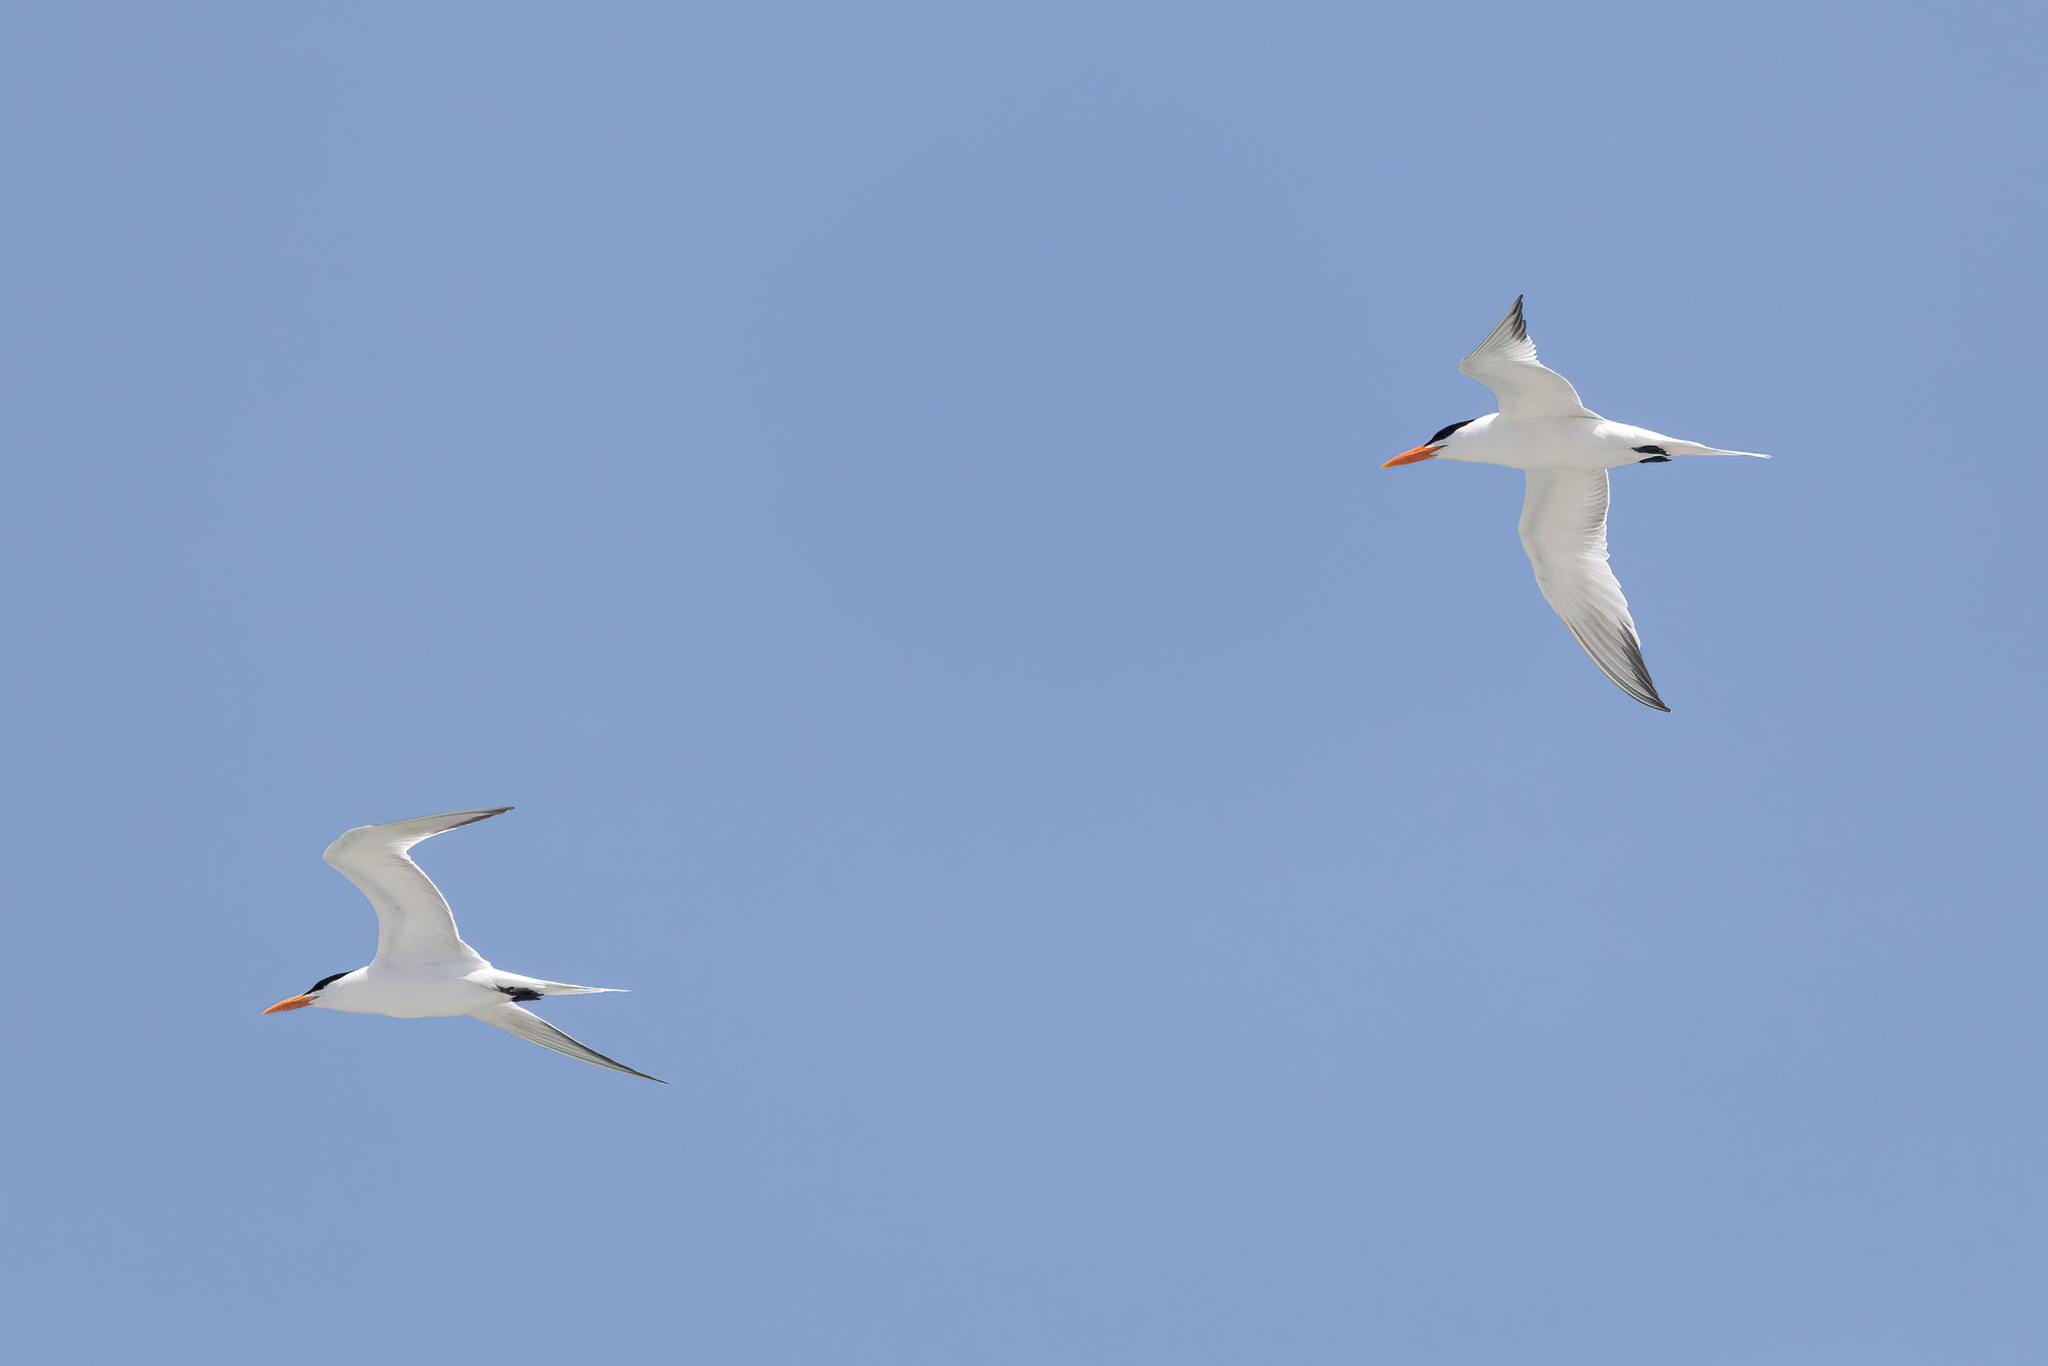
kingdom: Animalia
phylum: Chordata
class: Aves
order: Charadriiformes
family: Laridae
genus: Thalasseus
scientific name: Thalasseus maximus
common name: Royal tern
